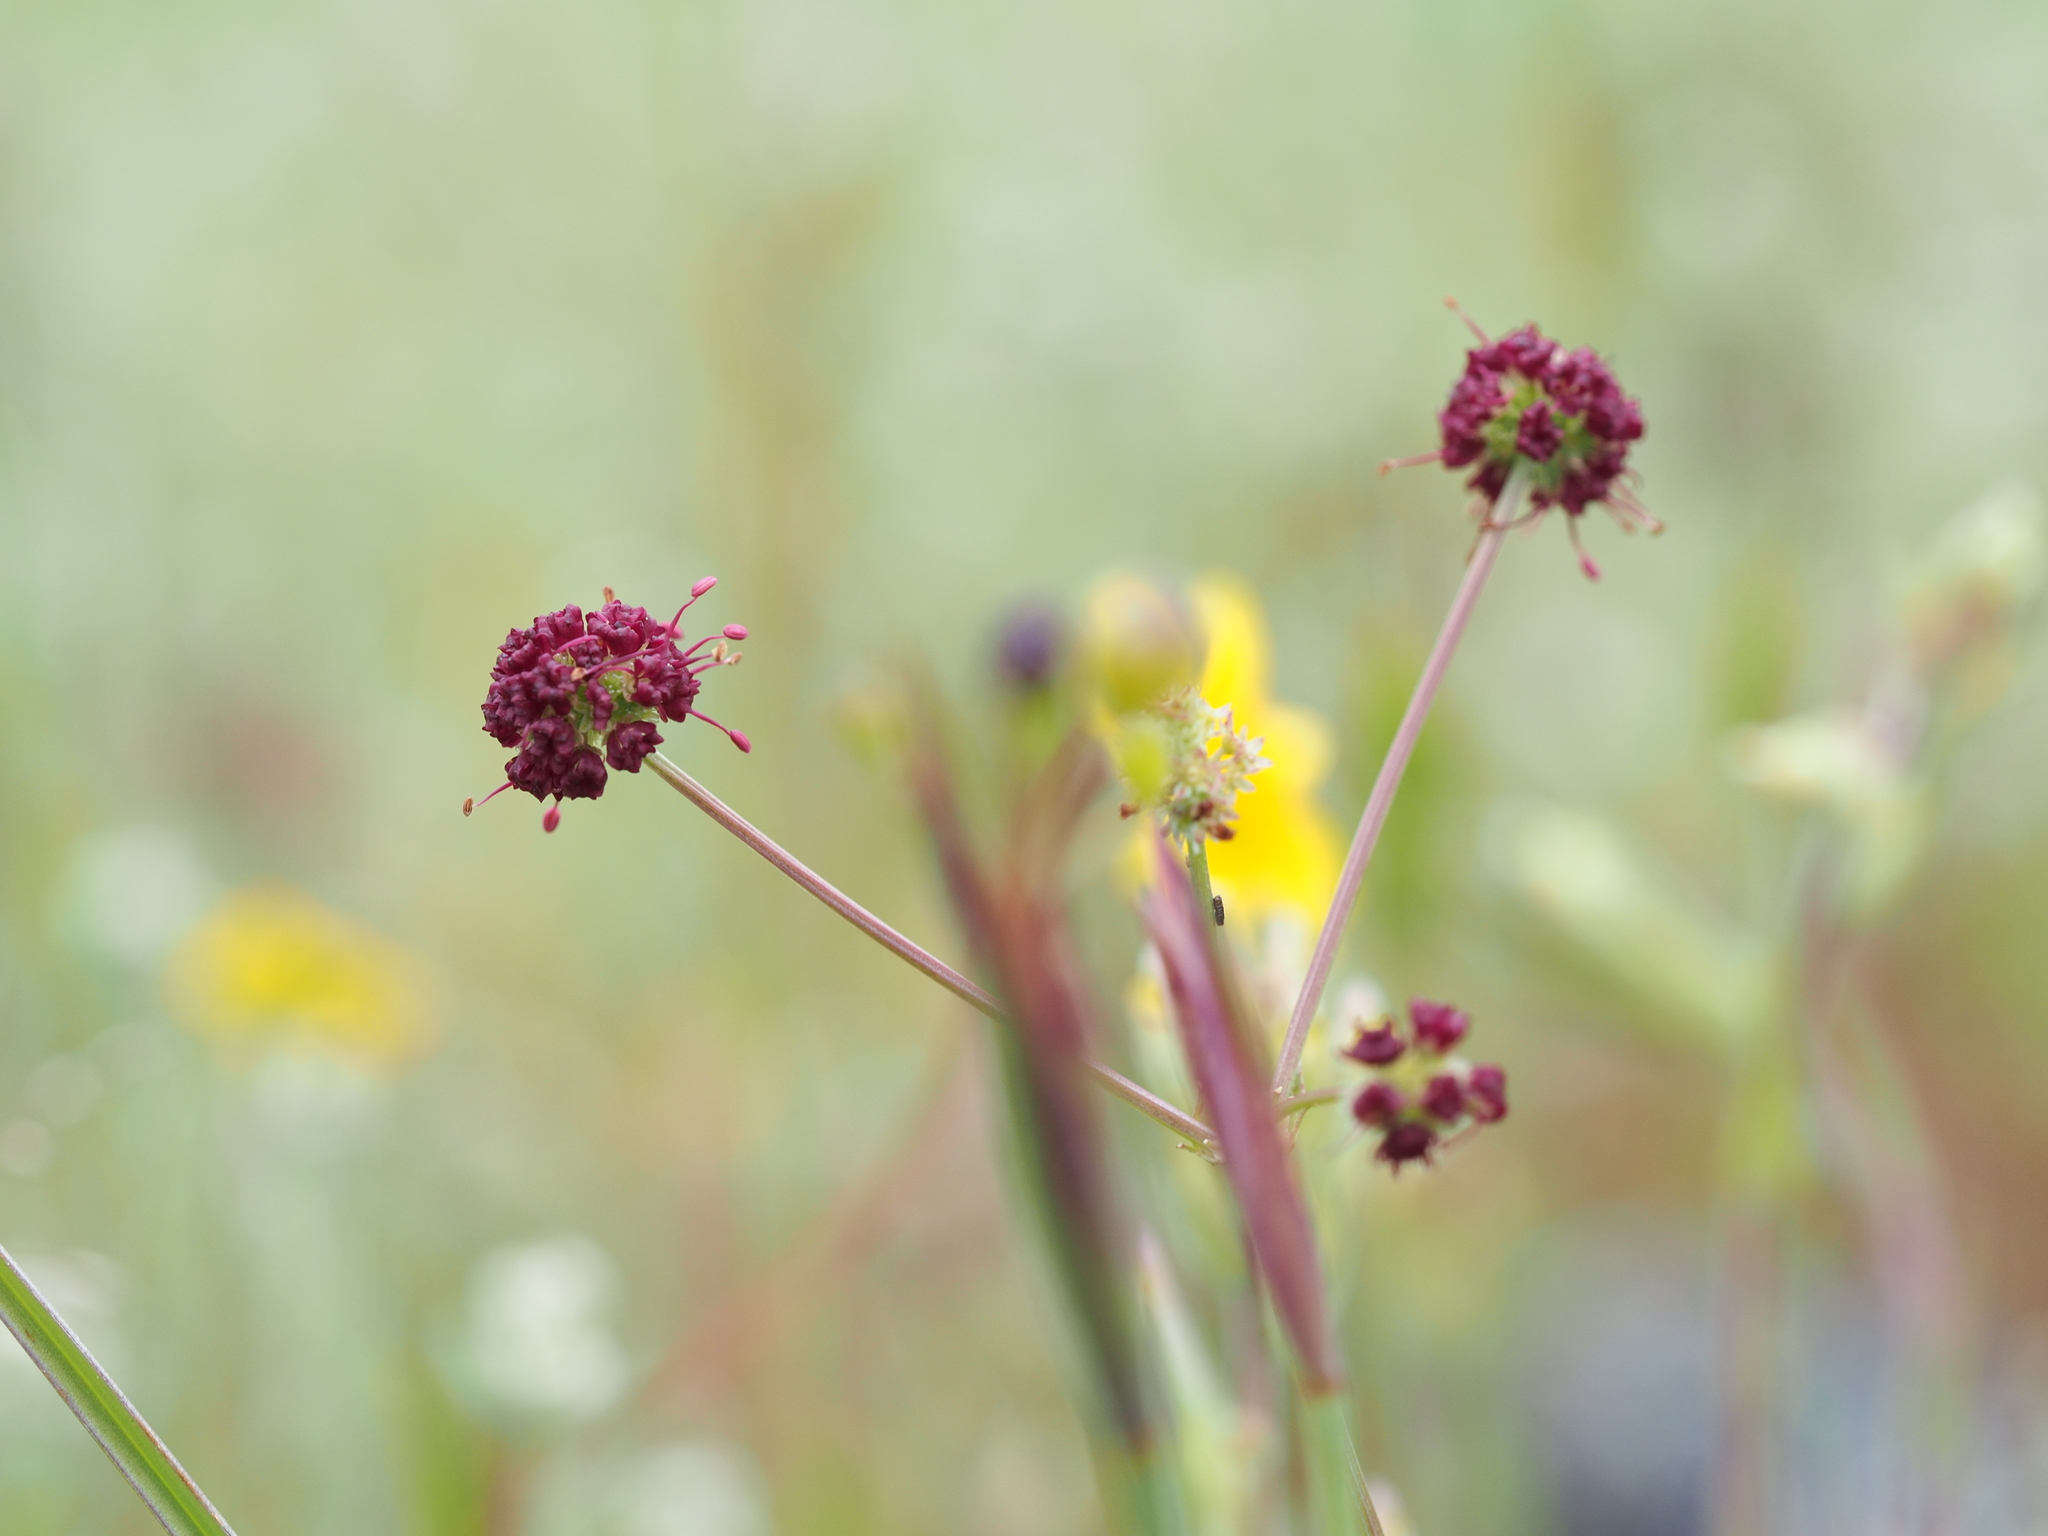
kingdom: Plantae
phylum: Tracheophyta
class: Magnoliopsida
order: Apiales
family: Apiaceae
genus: Sanicula
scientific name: Sanicula bipinnatifida
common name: Shoe-buttons
